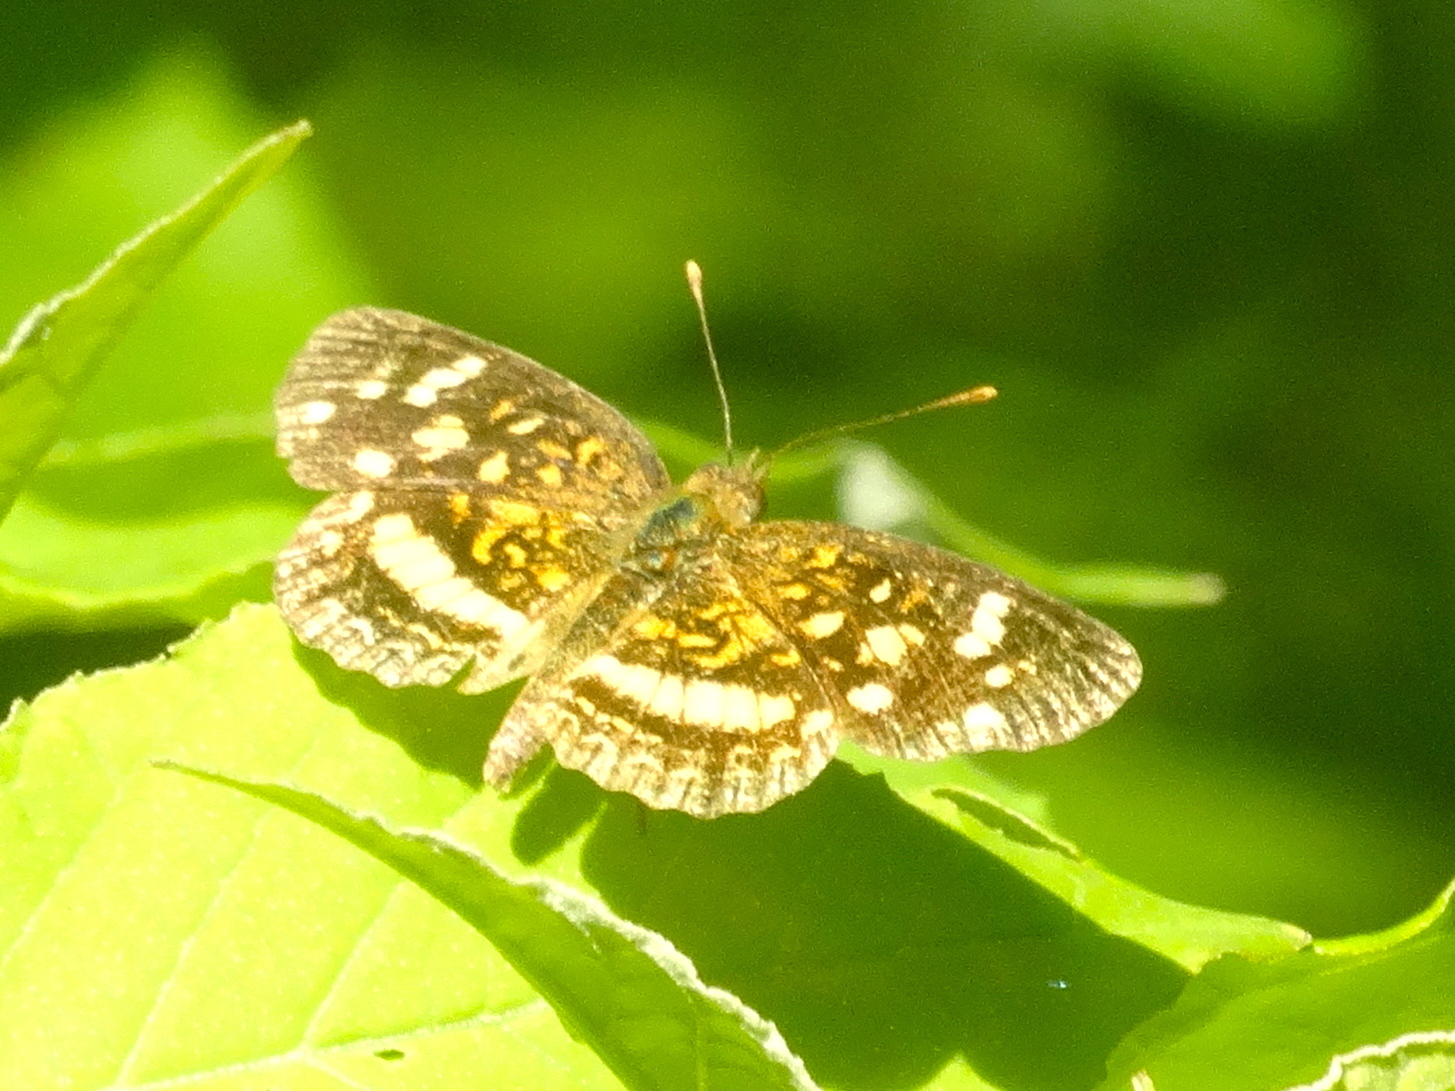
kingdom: Animalia
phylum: Arthropoda
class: Insecta
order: Lepidoptera
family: Nymphalidae
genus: Anthanassa
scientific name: Anthanassa tulcis
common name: Pale-banded crescent
